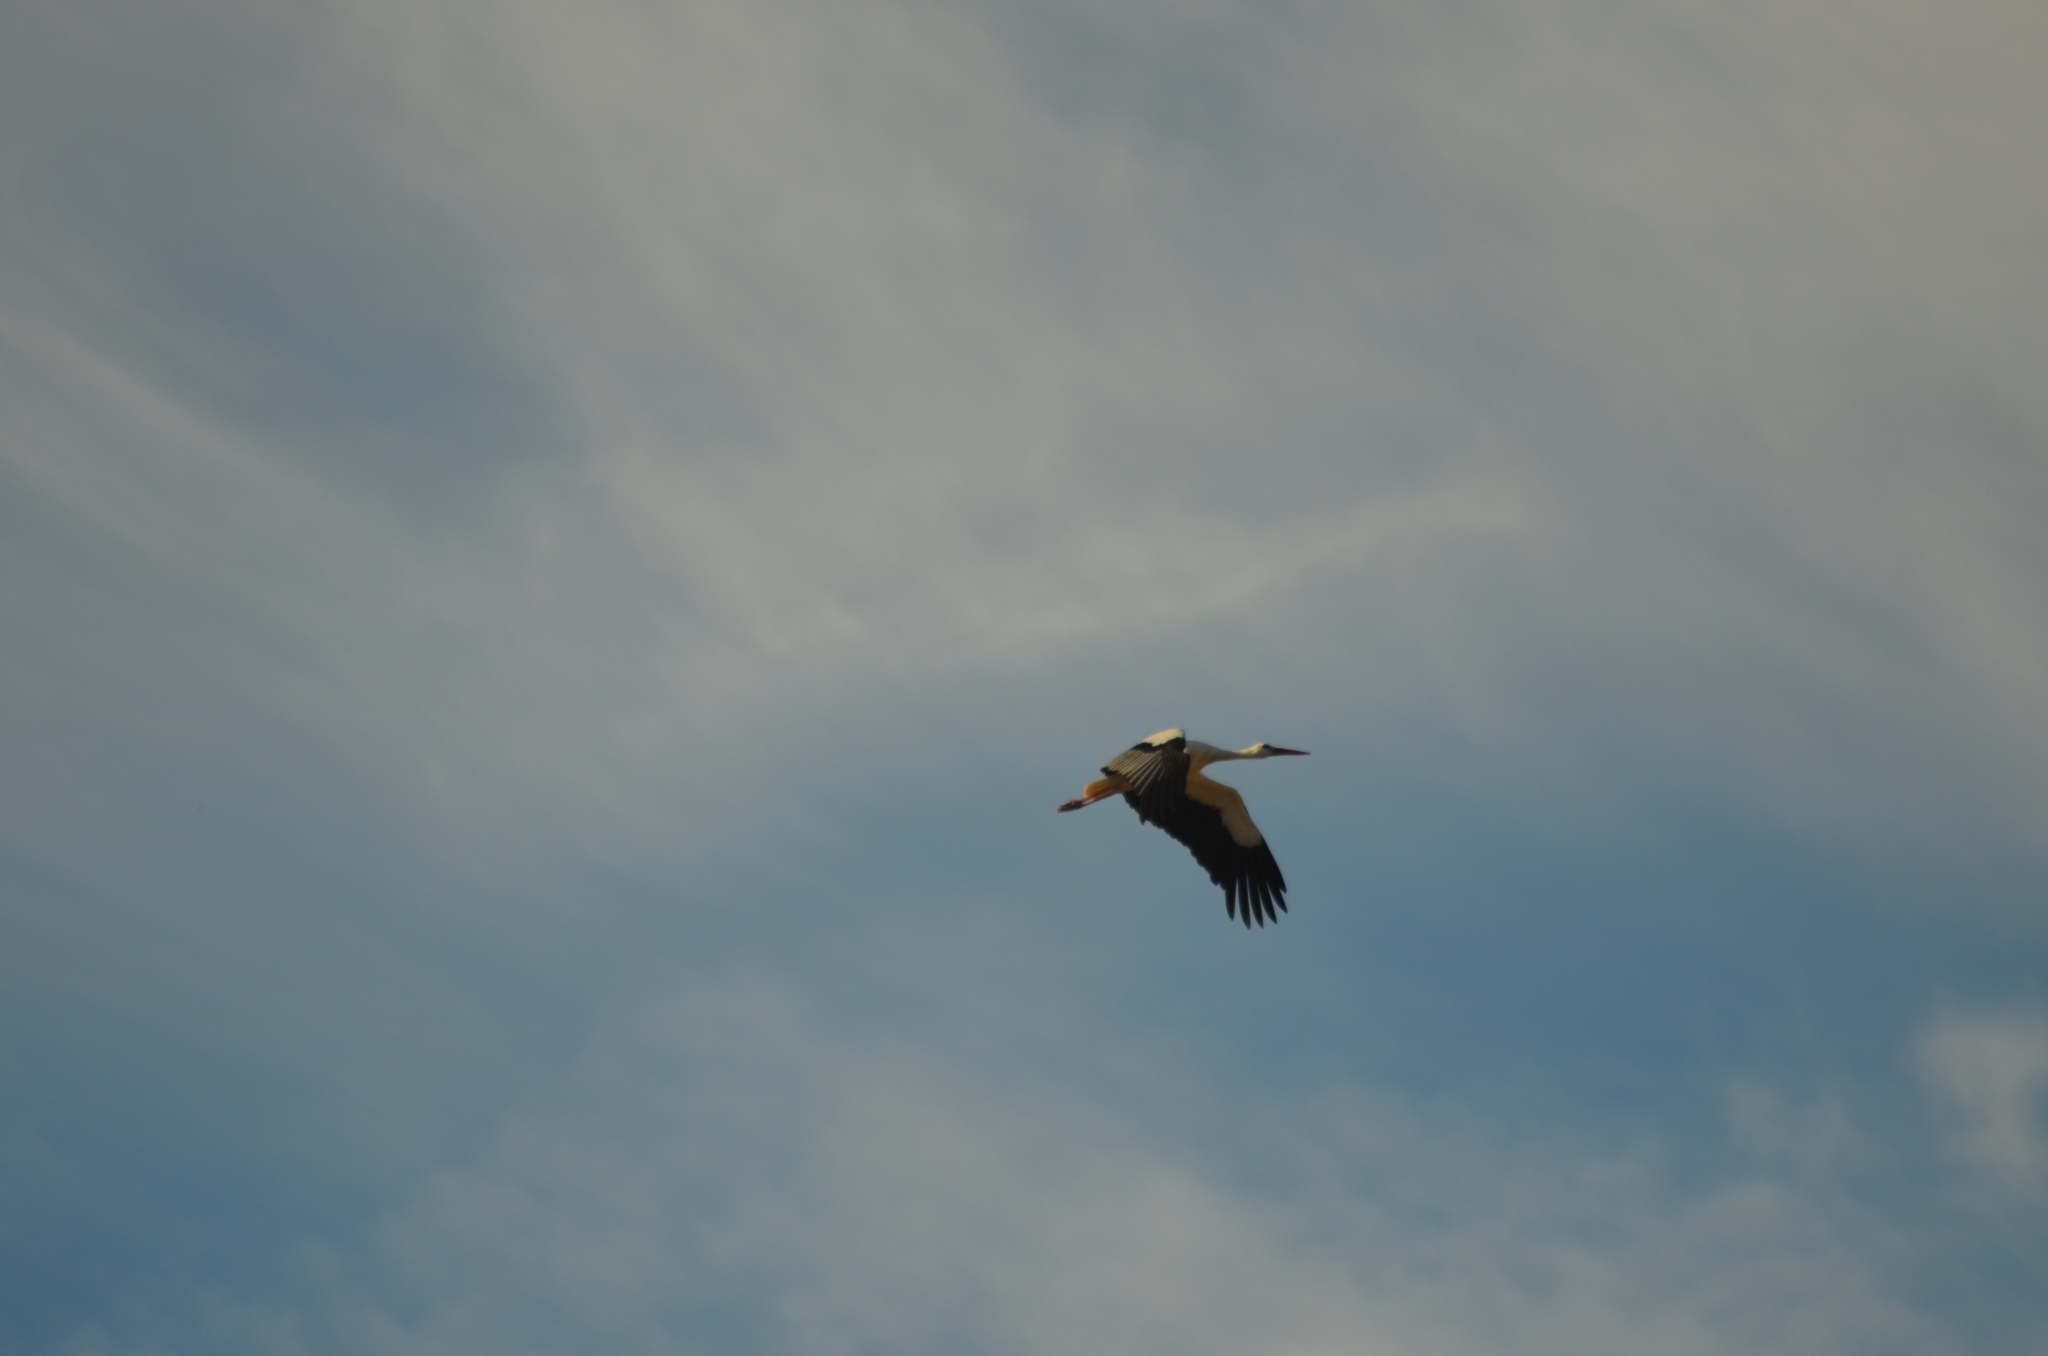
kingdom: Animalia
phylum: Chordata
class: Aves
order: Ciconiiformes
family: Ciconiidae
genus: Ciconia
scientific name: Ciconia ciconia
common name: White stork
